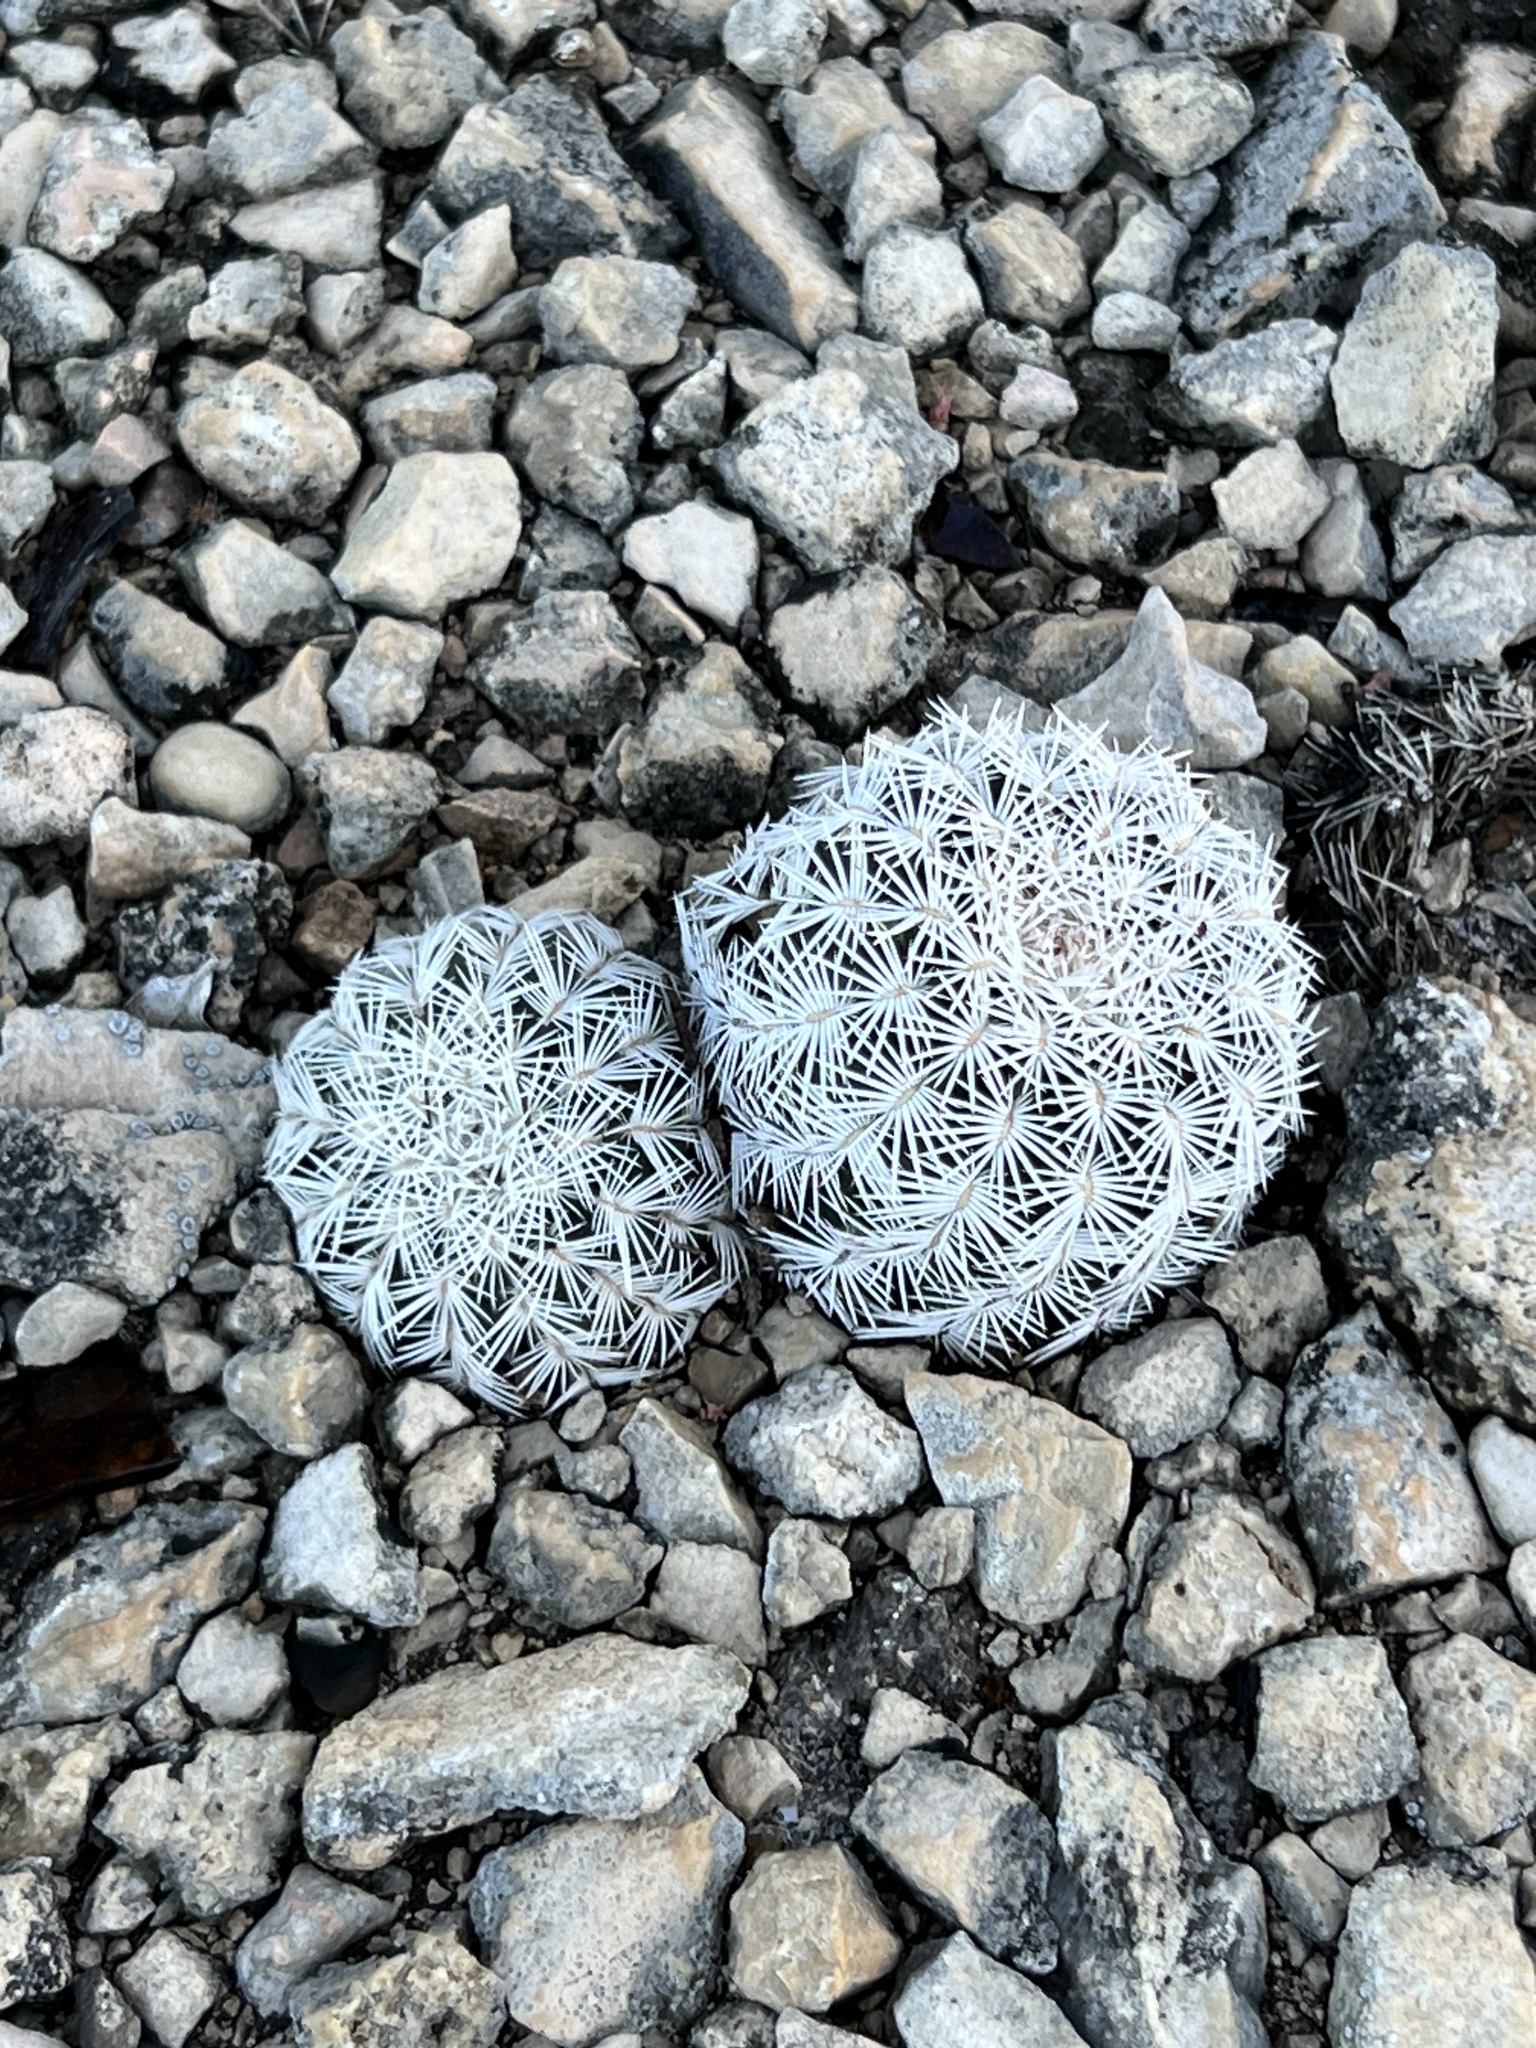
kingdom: Plantae
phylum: Tracheophyta
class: Magnoliopsida
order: Caryophyllales
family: Cactaceae
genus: Echinocereus
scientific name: Echinocereus reichenbachii
